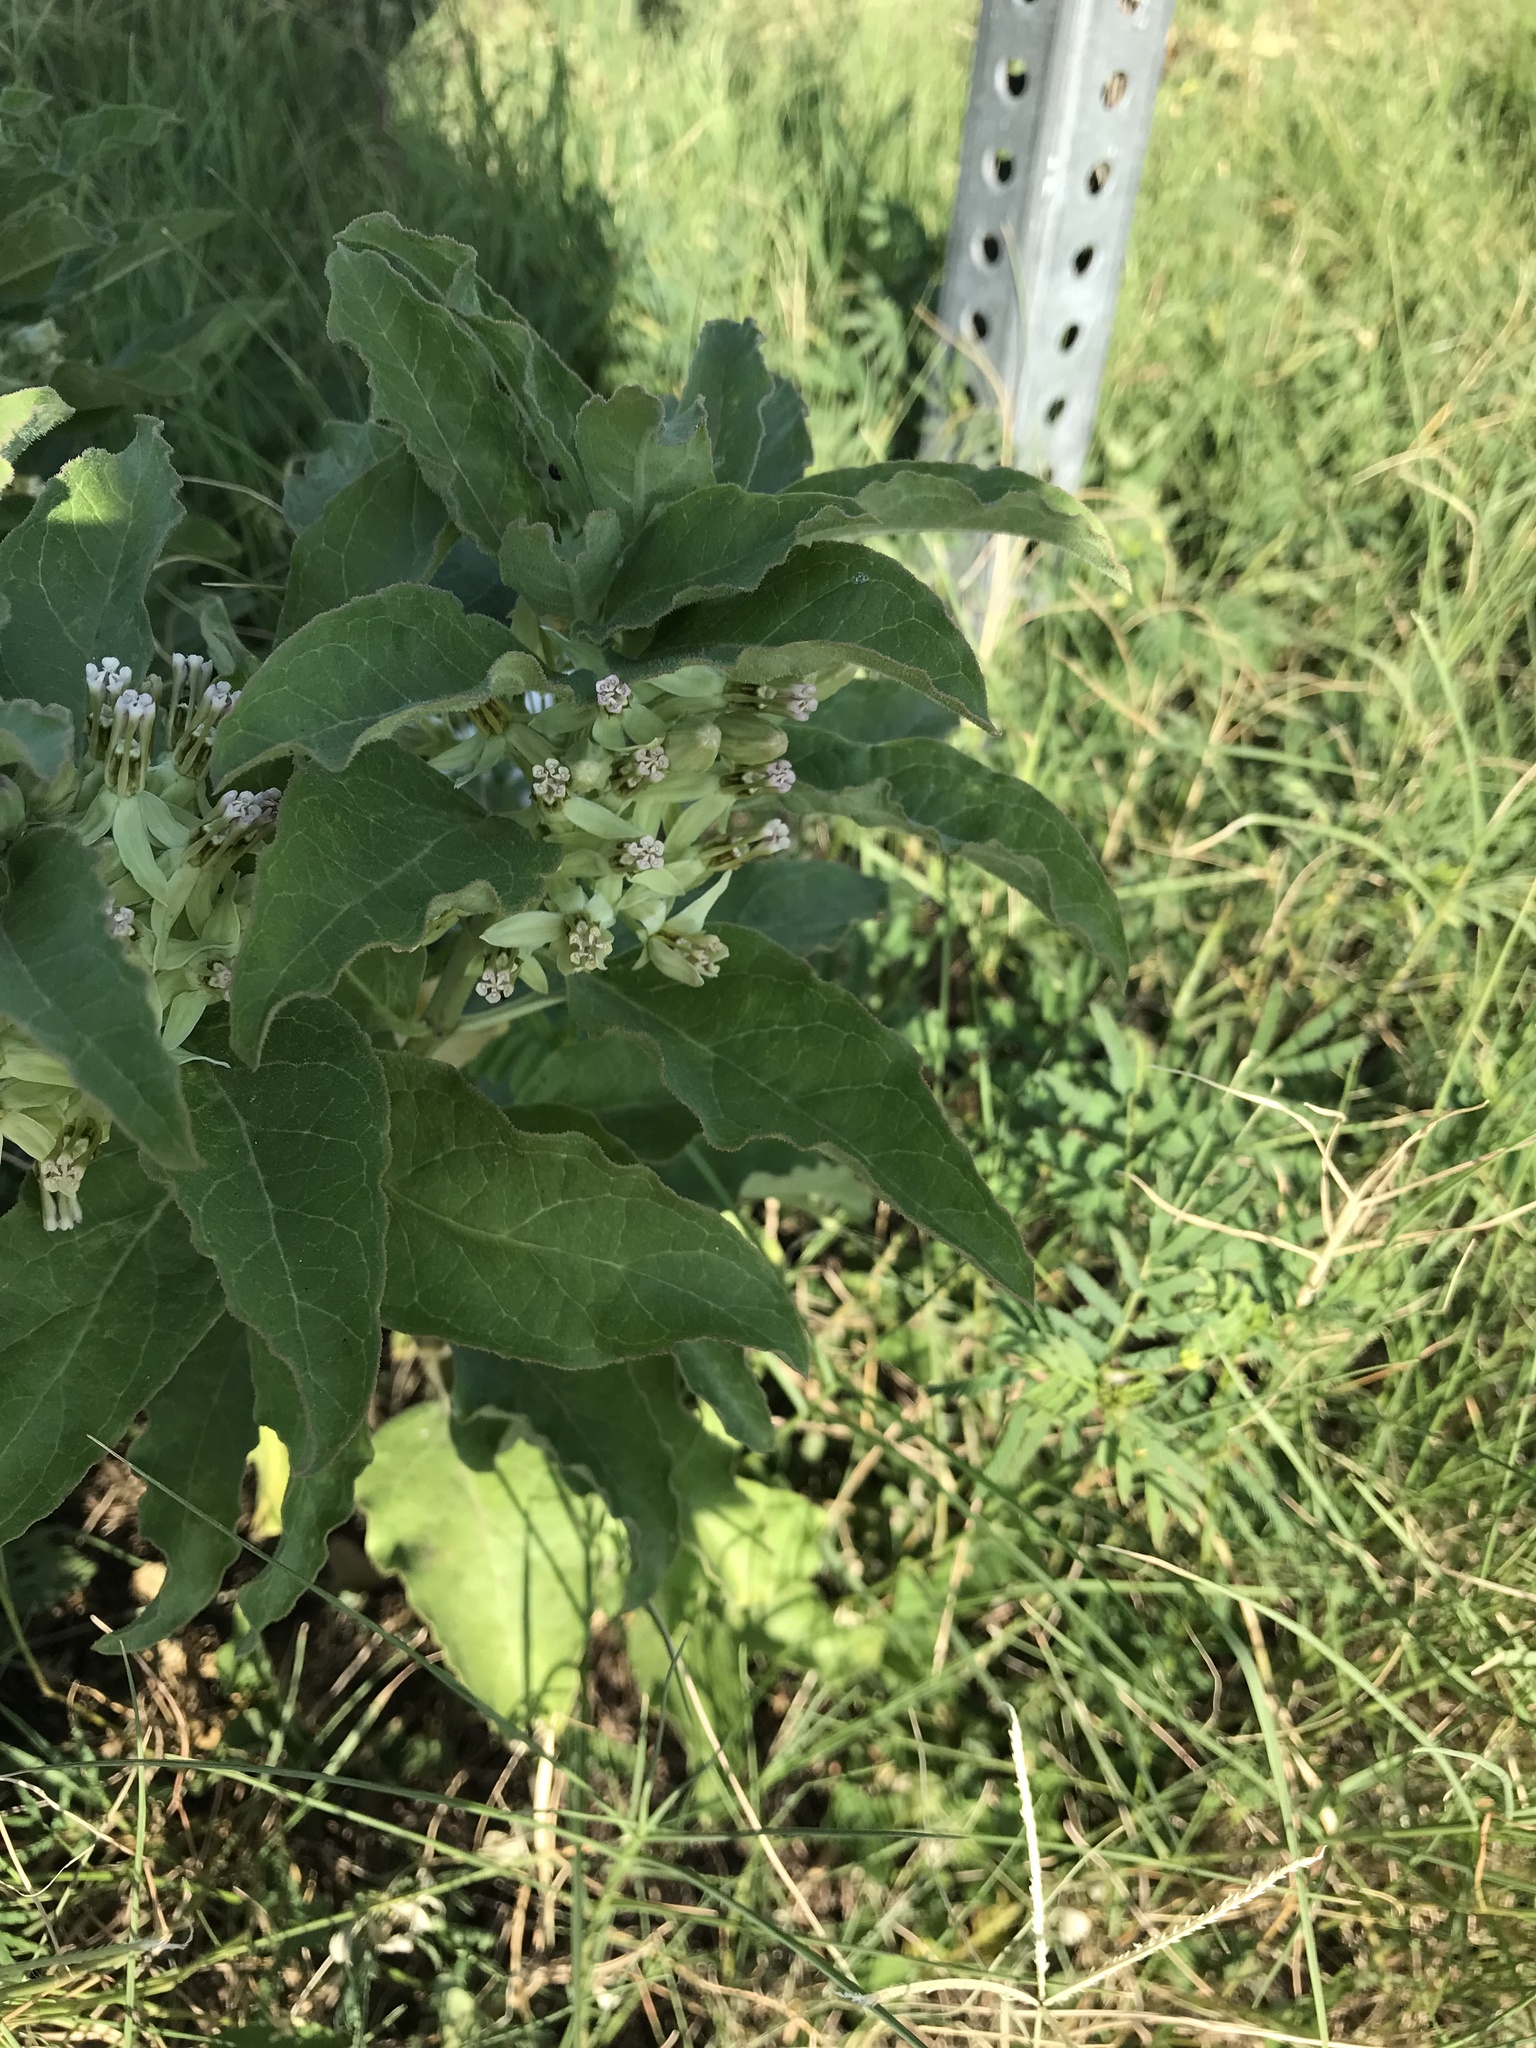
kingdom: Plantae
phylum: Tracheophyta
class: Magnoliopsida
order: Gentianales
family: Apocynaceae
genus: Asclepias
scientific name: Asclepias oenotheroides
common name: Zizotes milkweed
